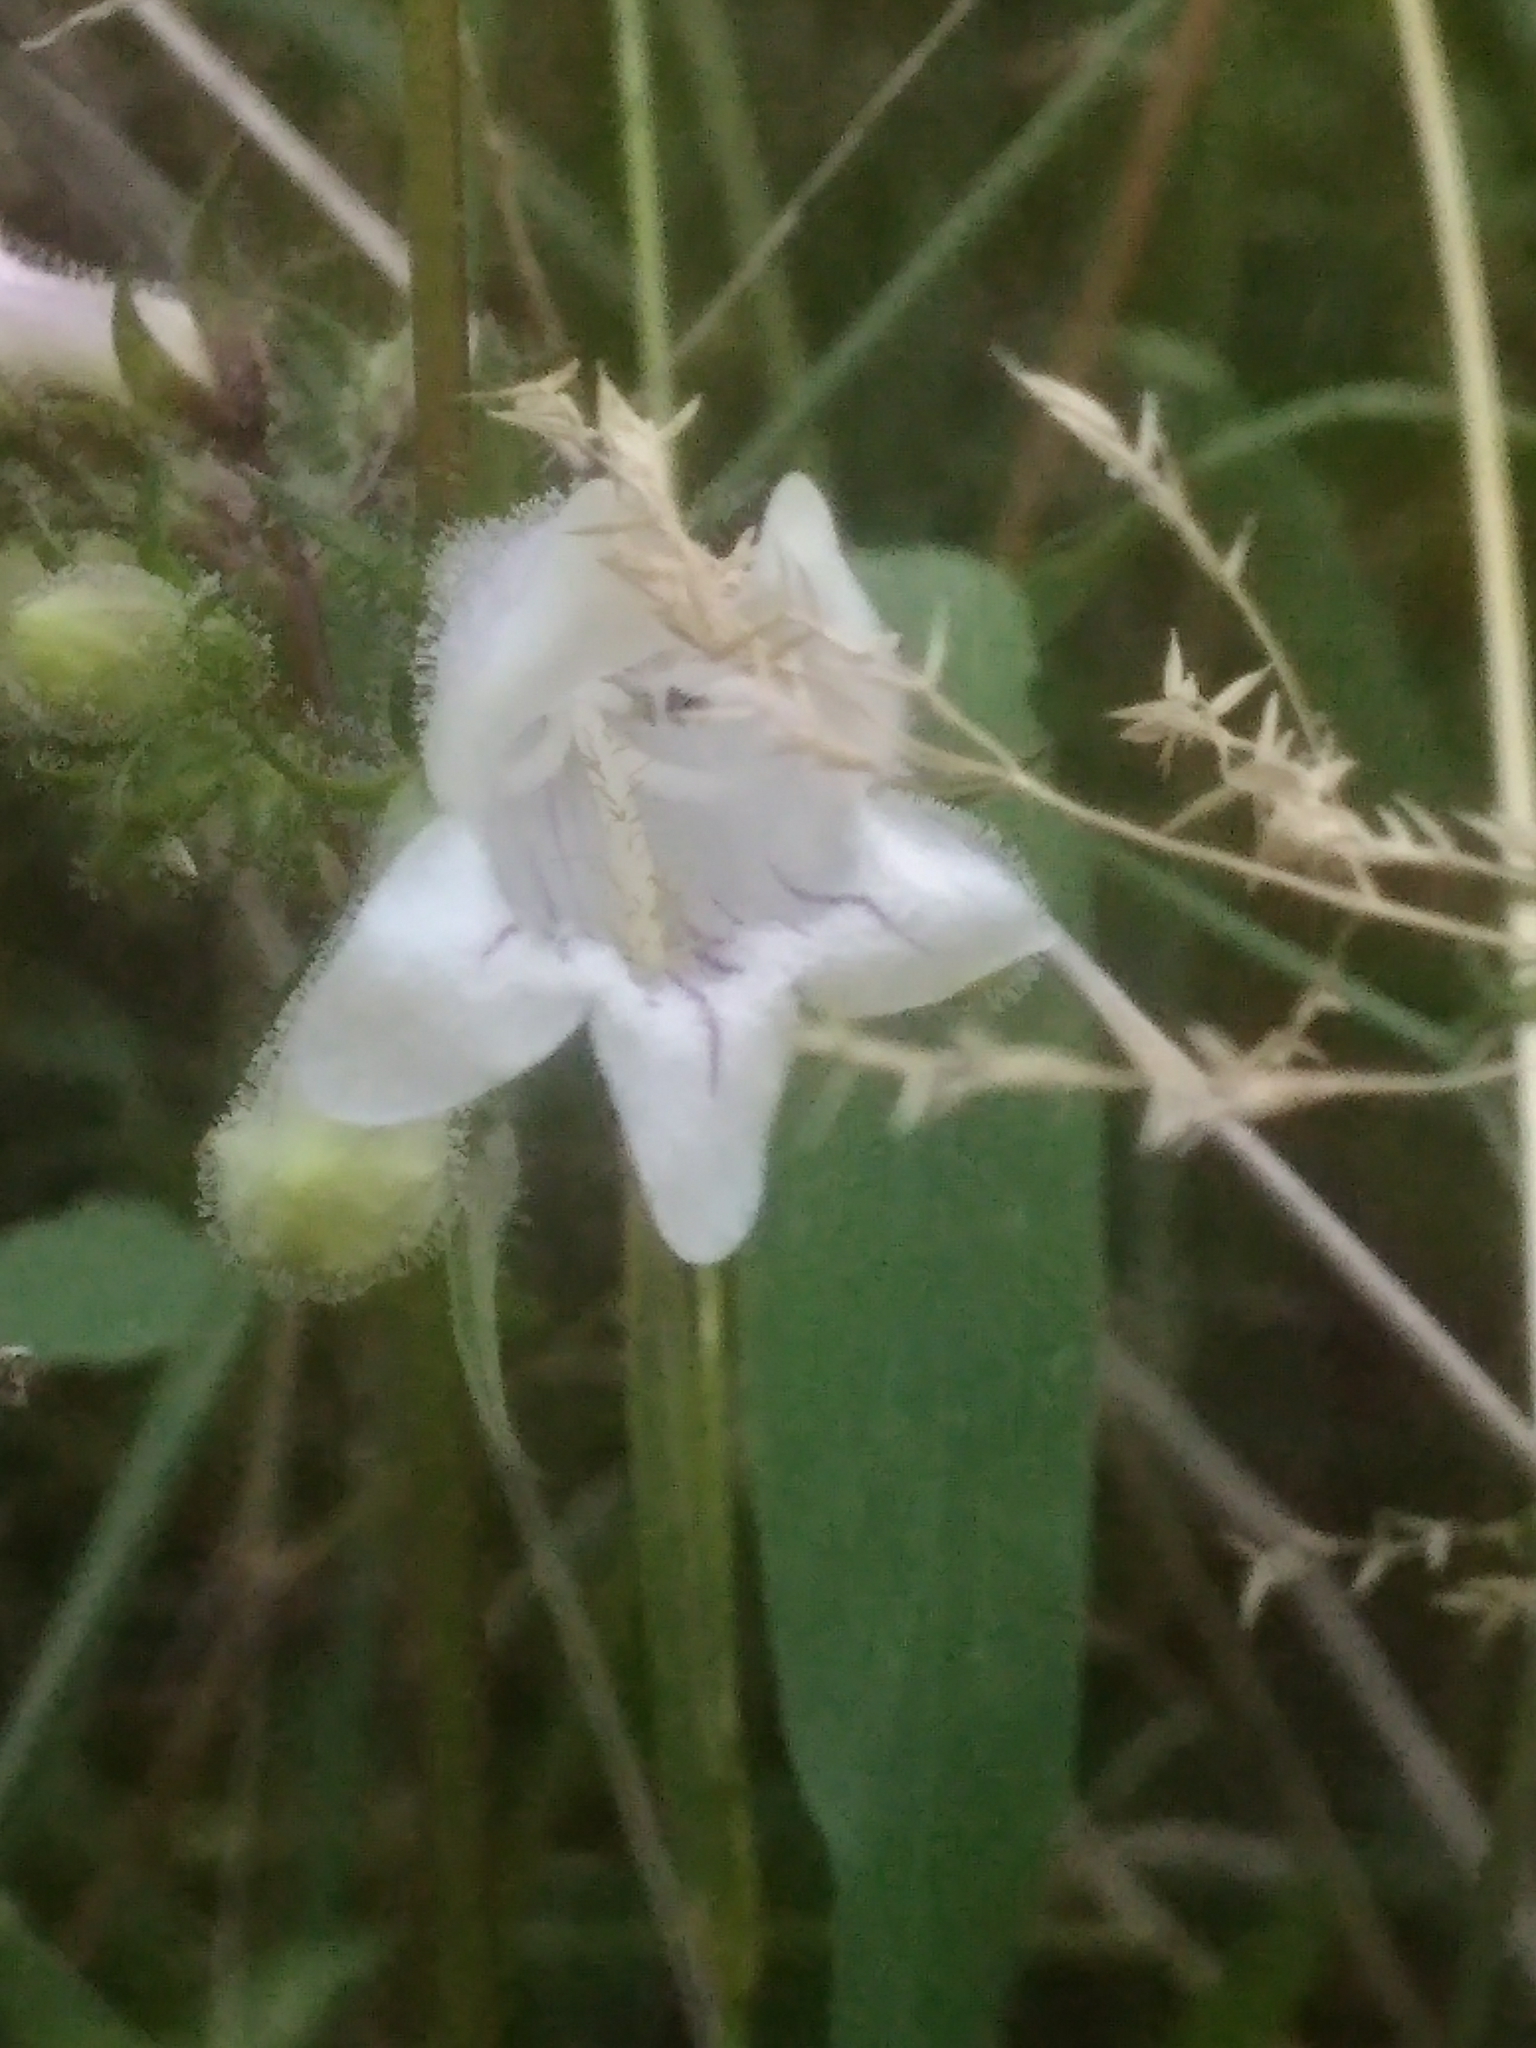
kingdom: Plantae
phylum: Tracheophyta
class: Magnoliopsida
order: Lamiales
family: Plantaginaceae
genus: Penstemon
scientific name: Penstemon digitalis
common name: Foxglove beardtongue
